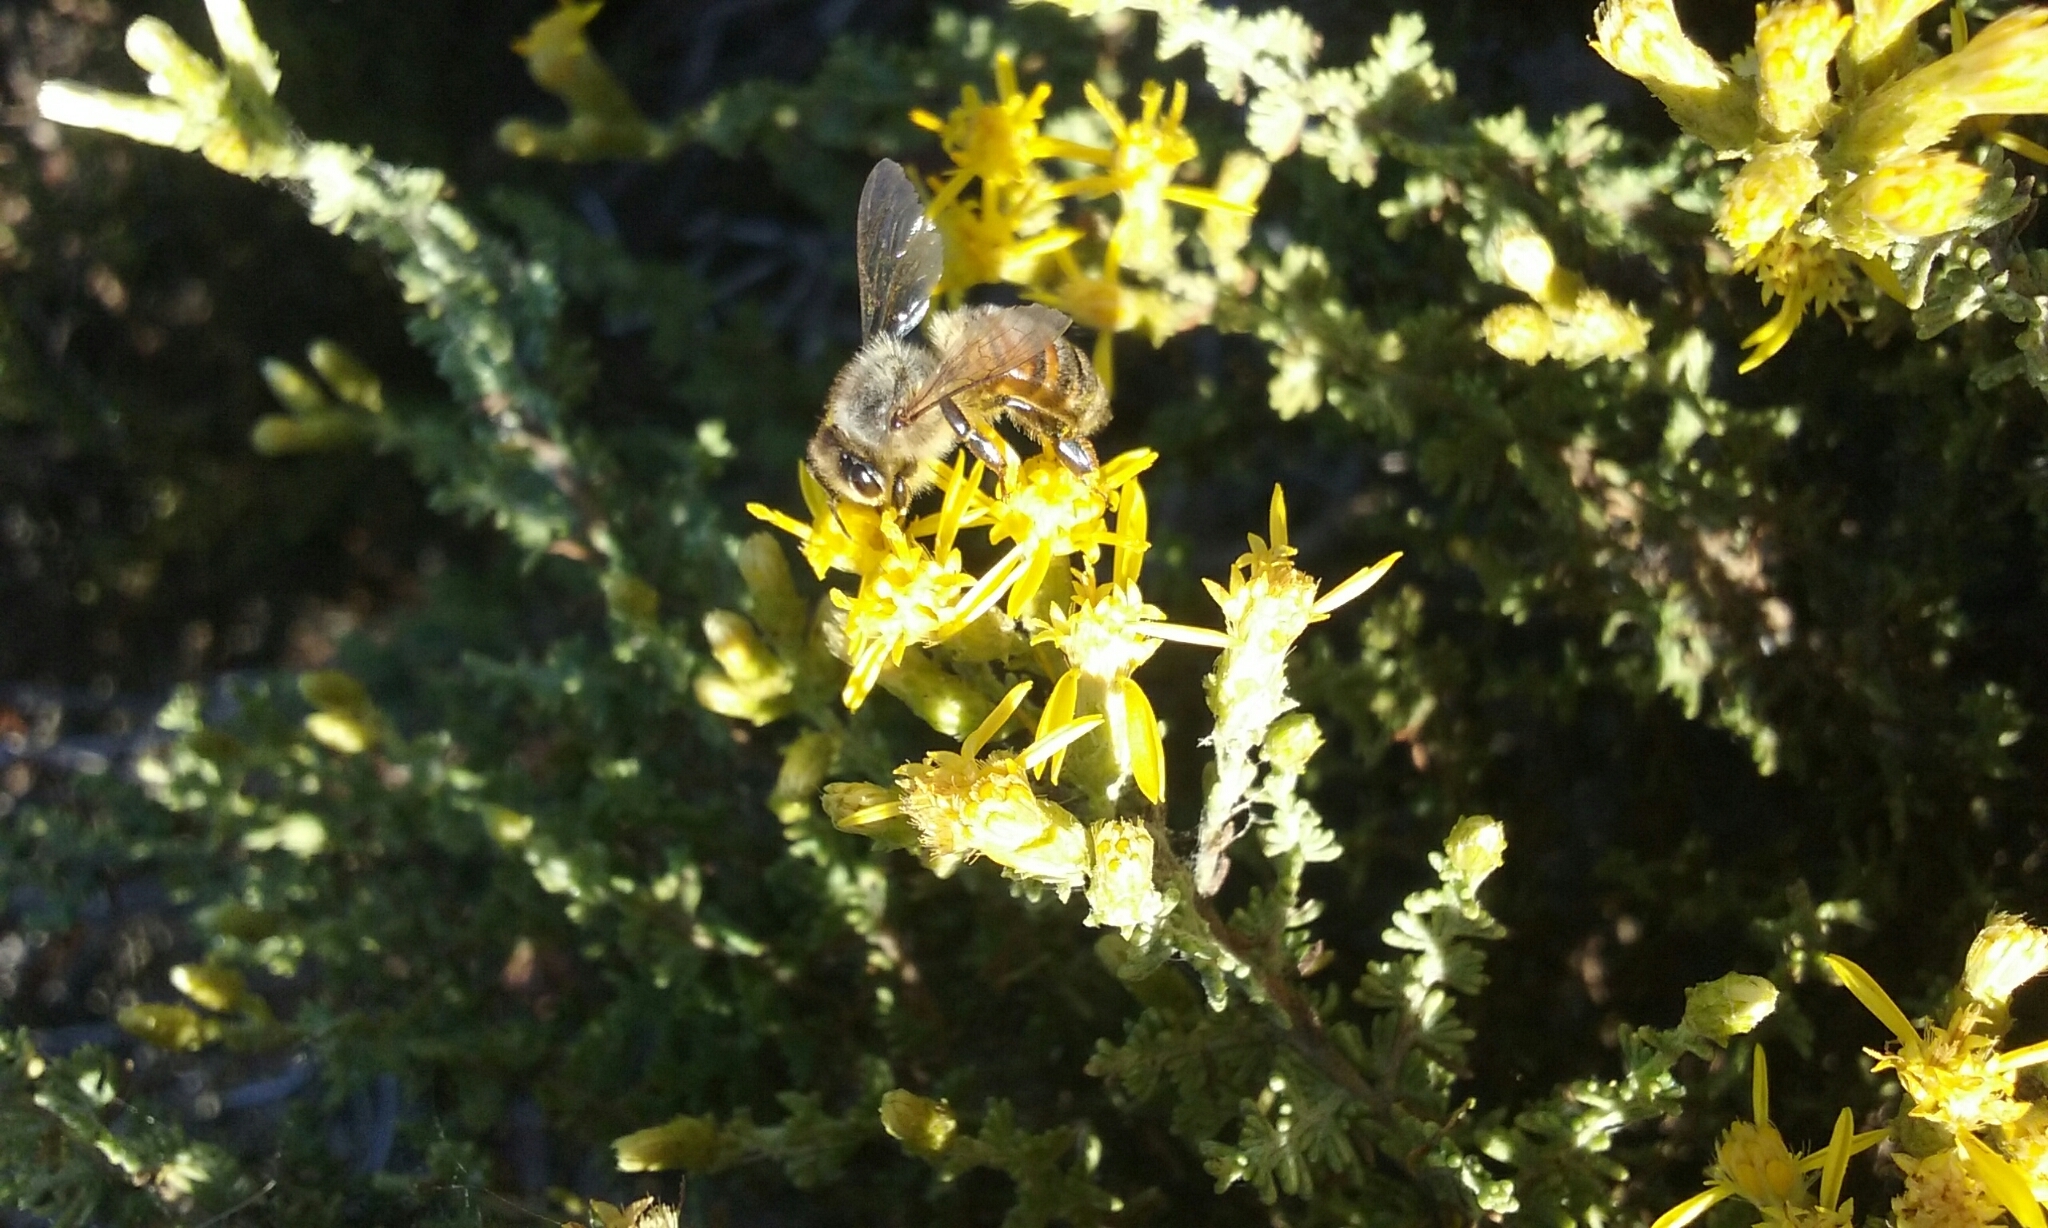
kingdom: Animalia
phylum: Arthropoda
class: Insecta
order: Hymenoptera
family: Apidae
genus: Apis
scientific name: Apis mellifera
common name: Honey bee
